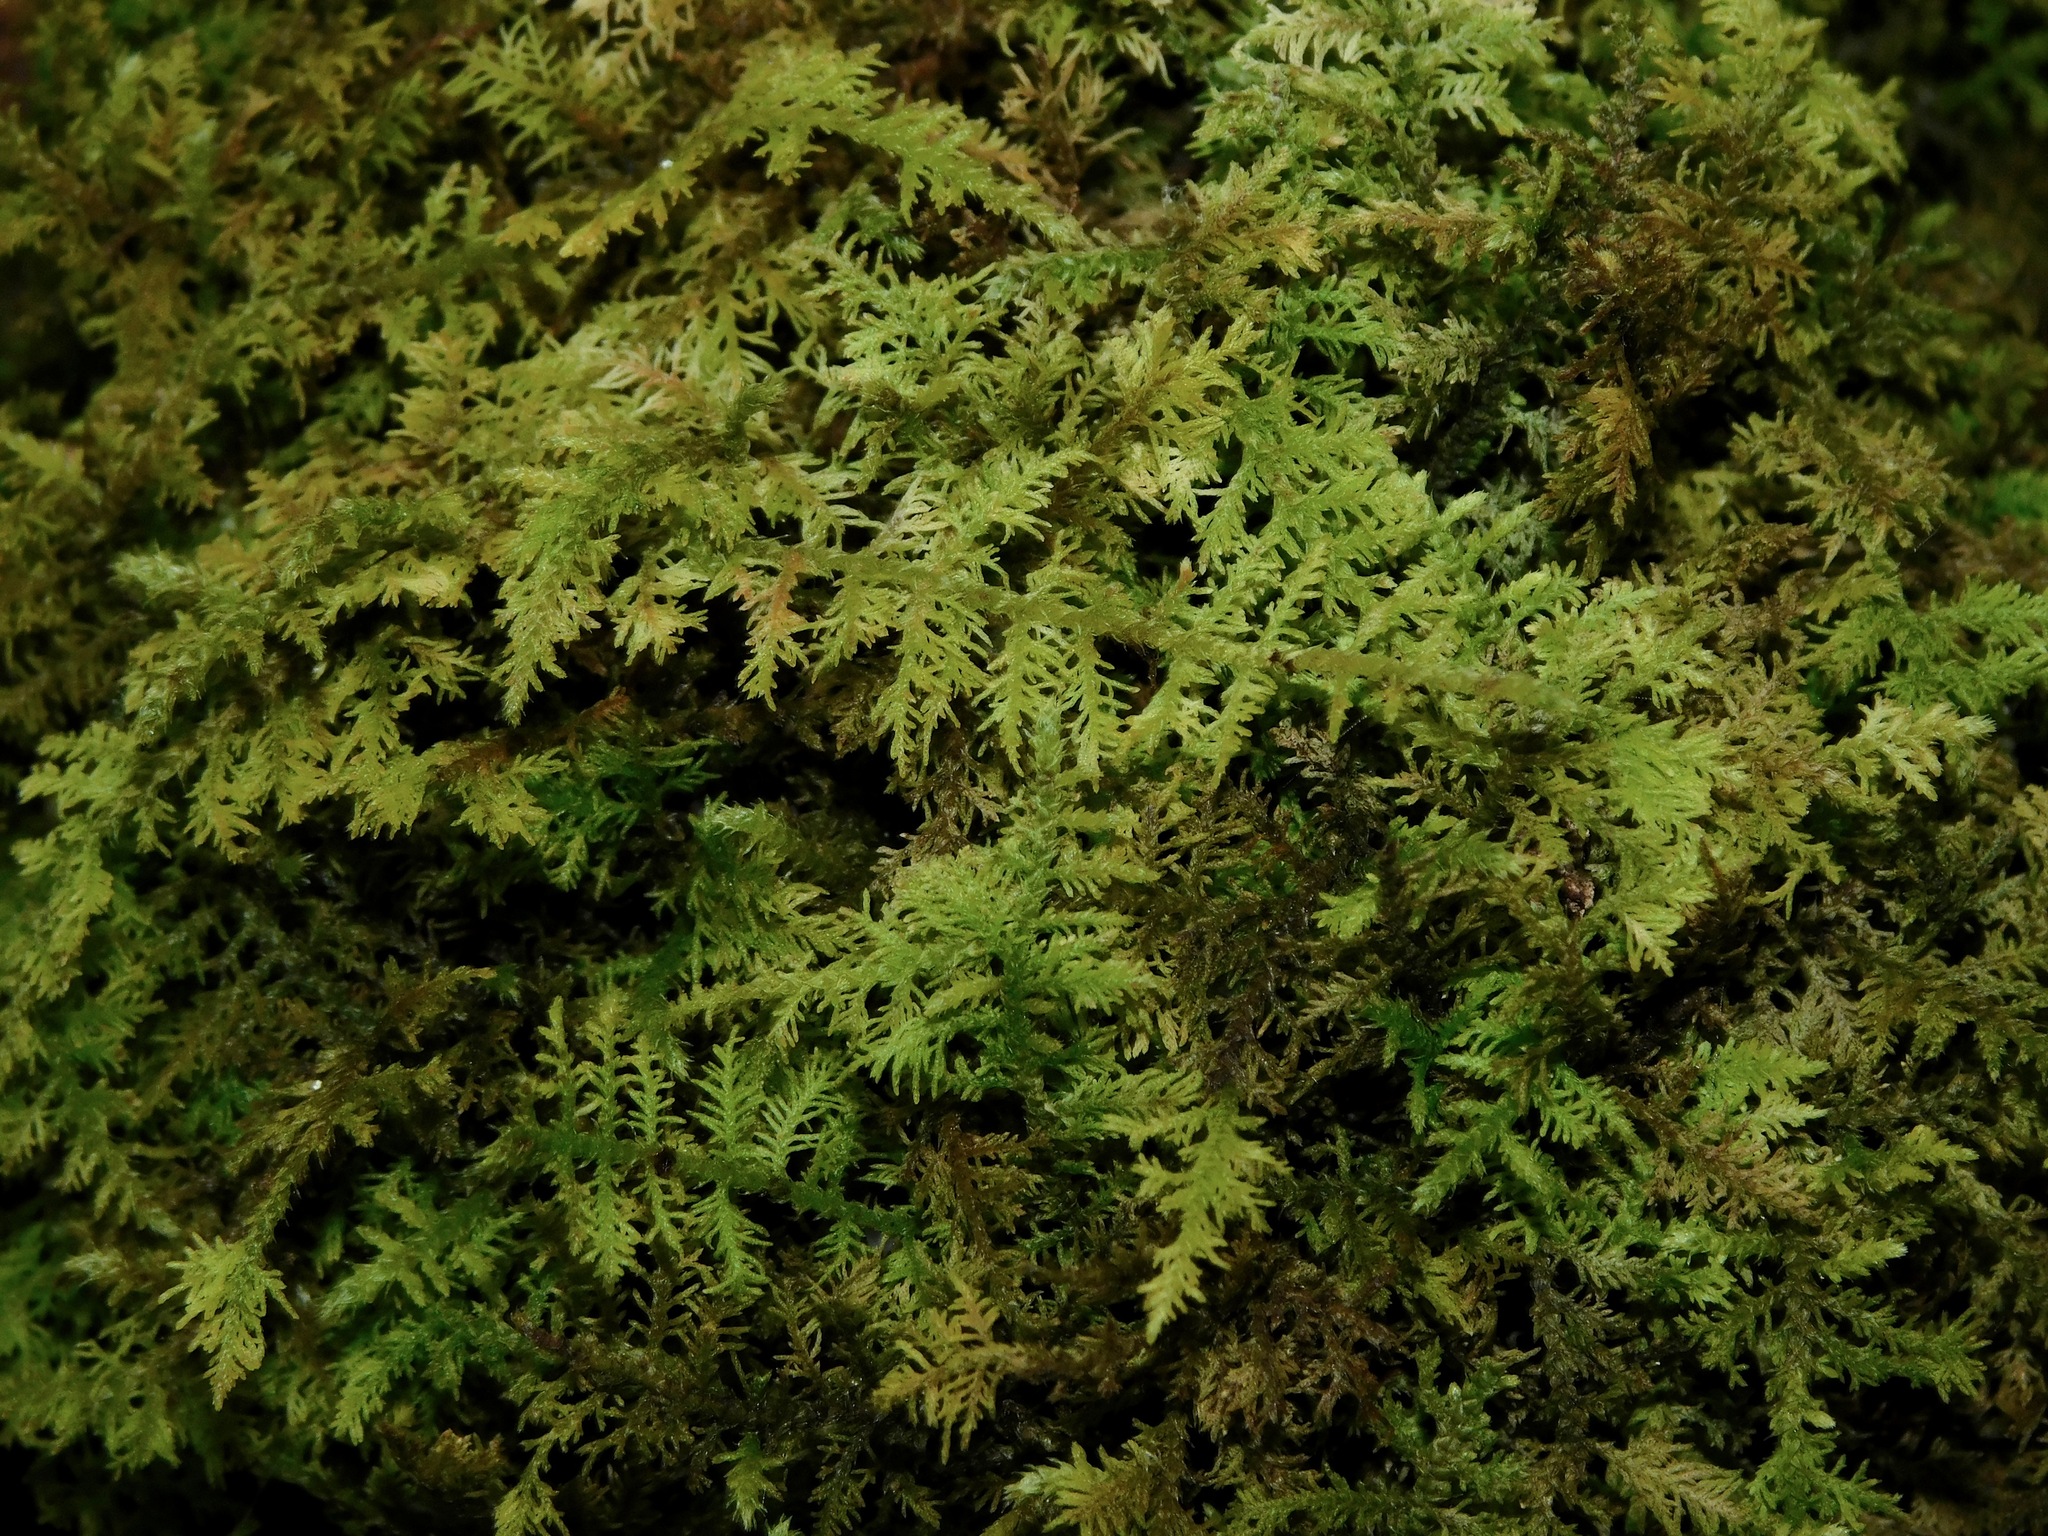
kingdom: Plantae
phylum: Bryophyta
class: Bryopsida
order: Hypnales
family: Thuidiaceae
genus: Thuidium
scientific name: Thuidium delicatulum
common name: Delicate fern moss
